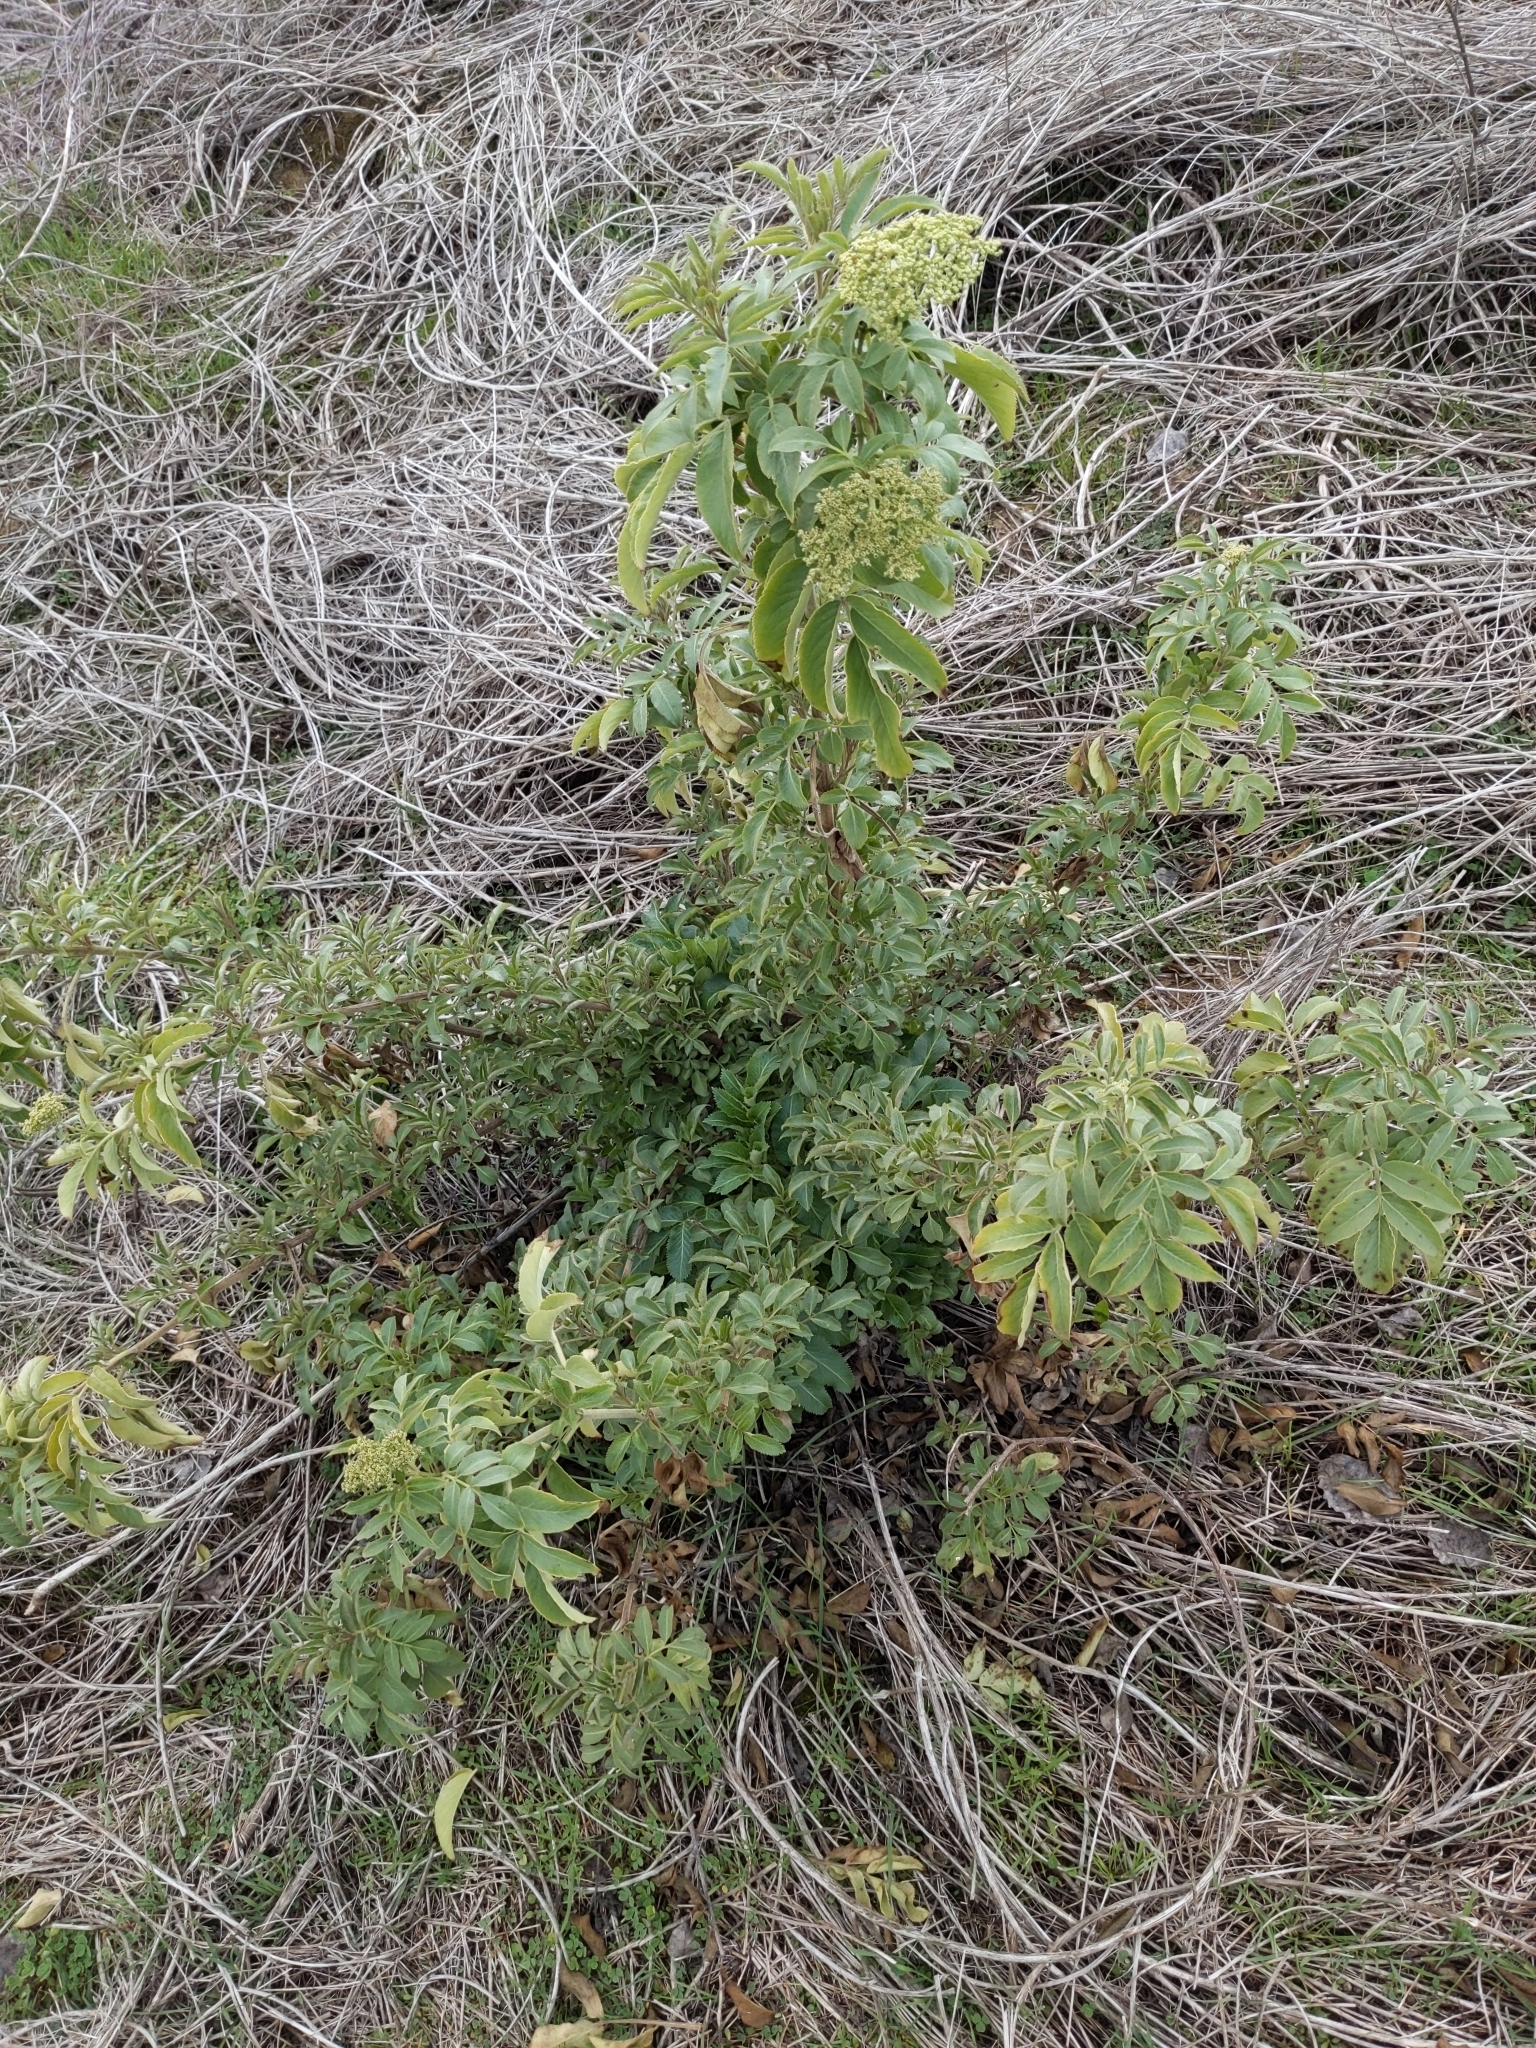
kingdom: Plantae
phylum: Tracheophyta
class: Magnoliopsida
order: Dipsacales
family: Viburnaceae
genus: Sambucus
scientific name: Sambucus cerulea
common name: Blue elder
